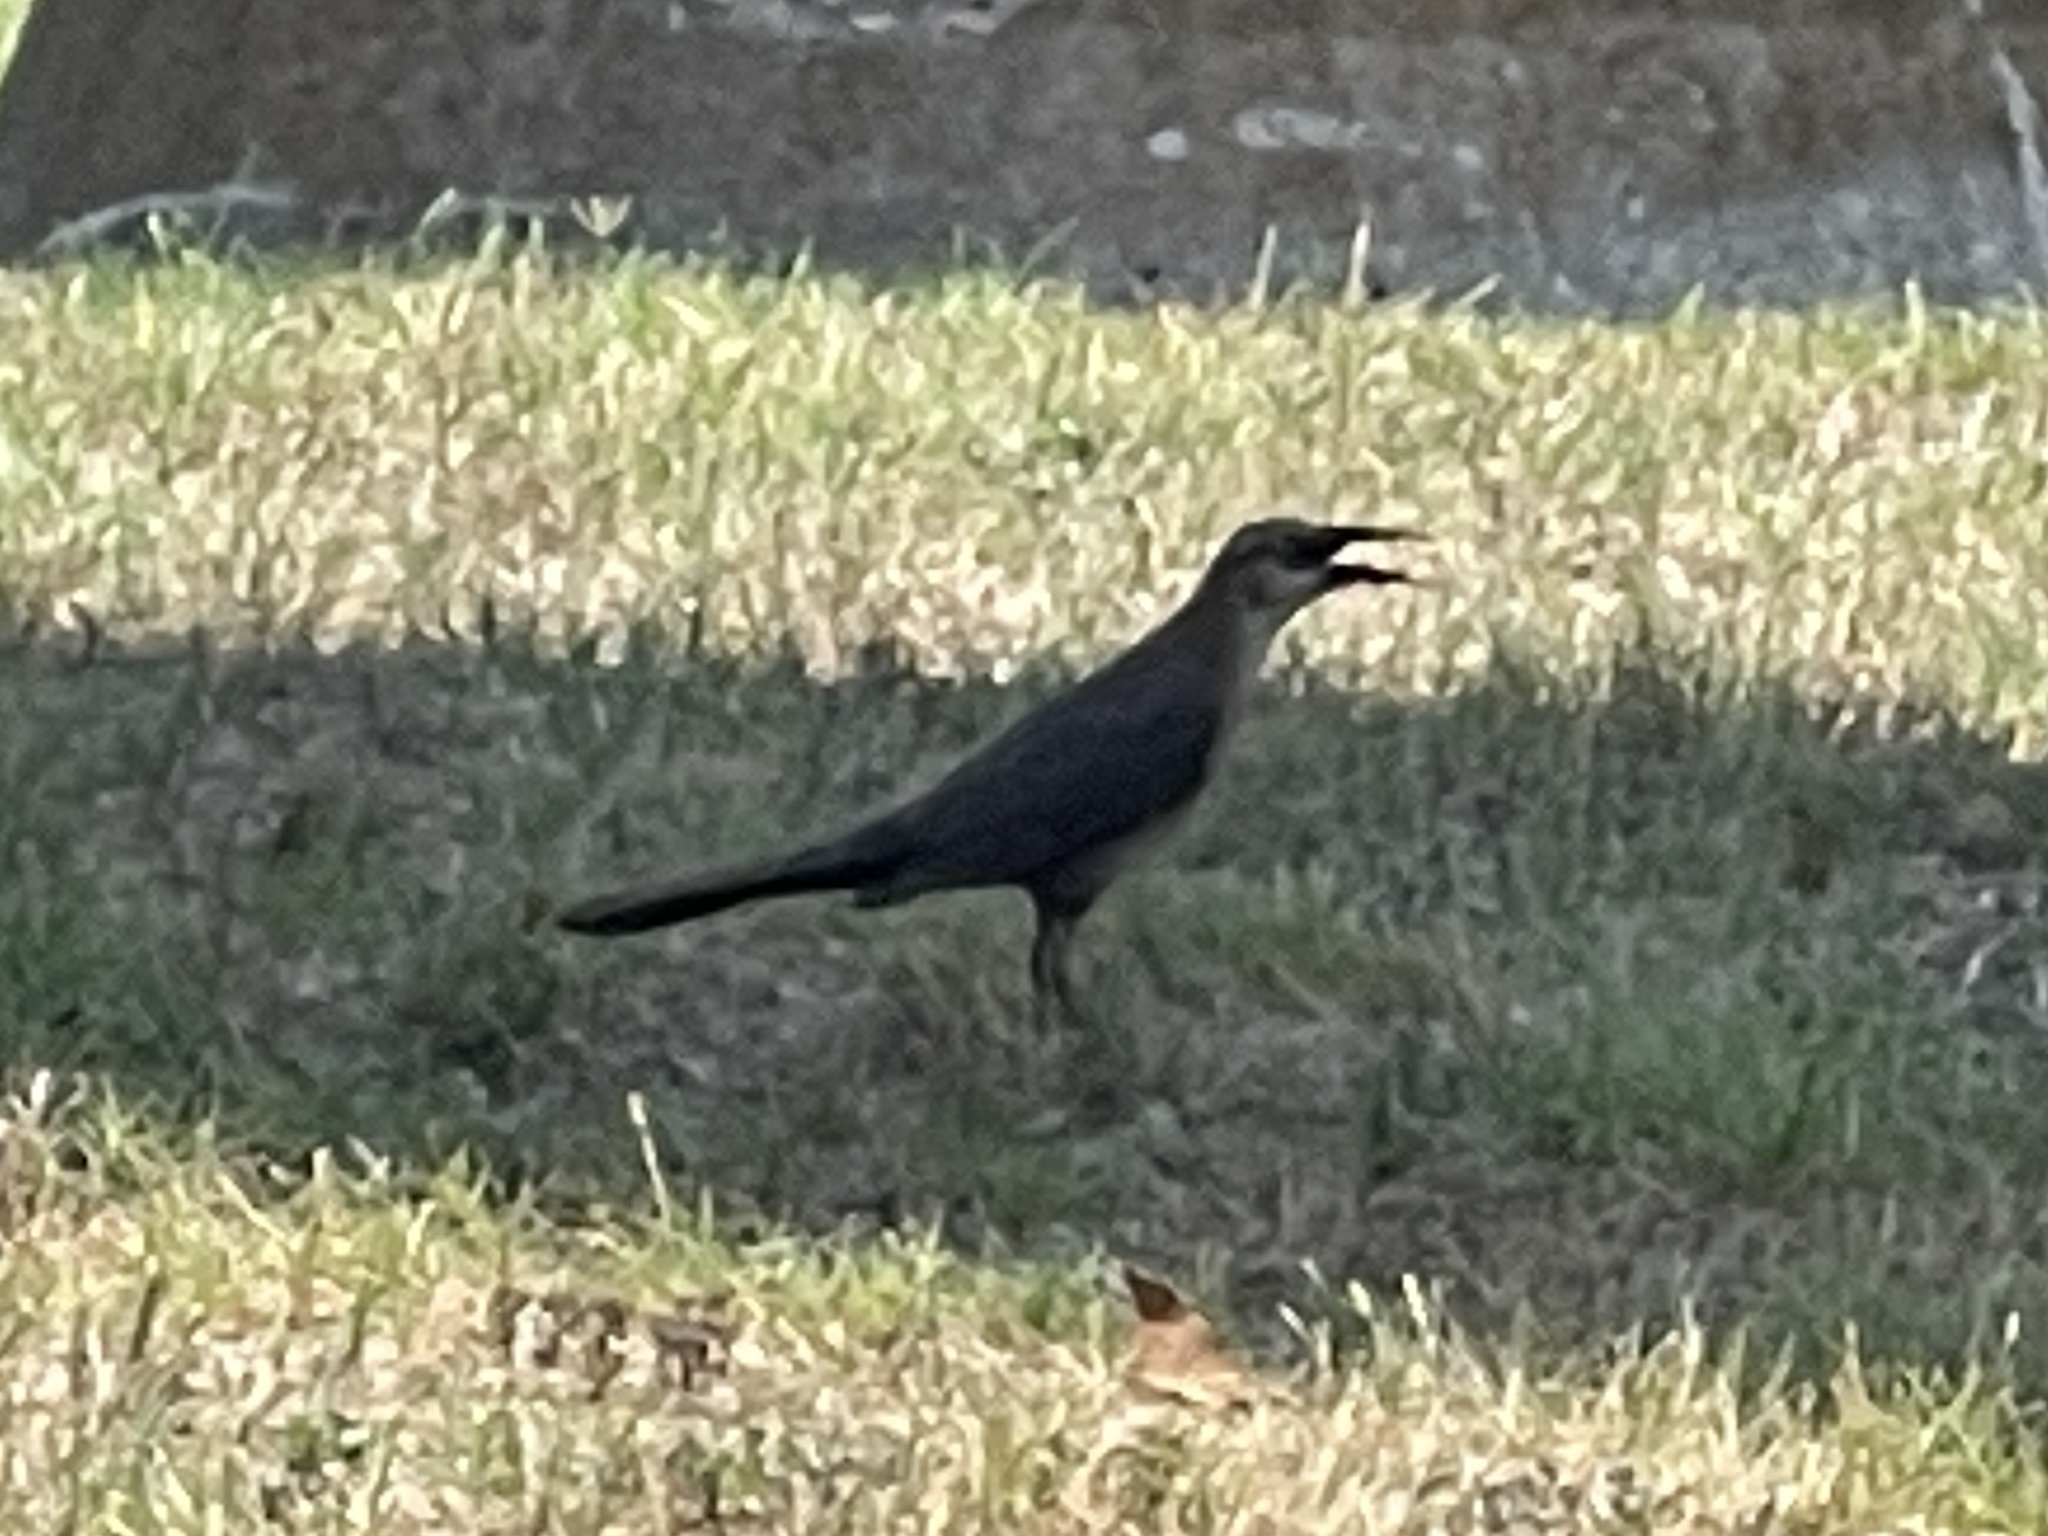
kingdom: Animalia
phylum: Chordata
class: Aves
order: Passeriformes
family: Icteridae
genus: Quiscalus
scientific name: Quiscalus mexicanus
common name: Great-tailed grackle
